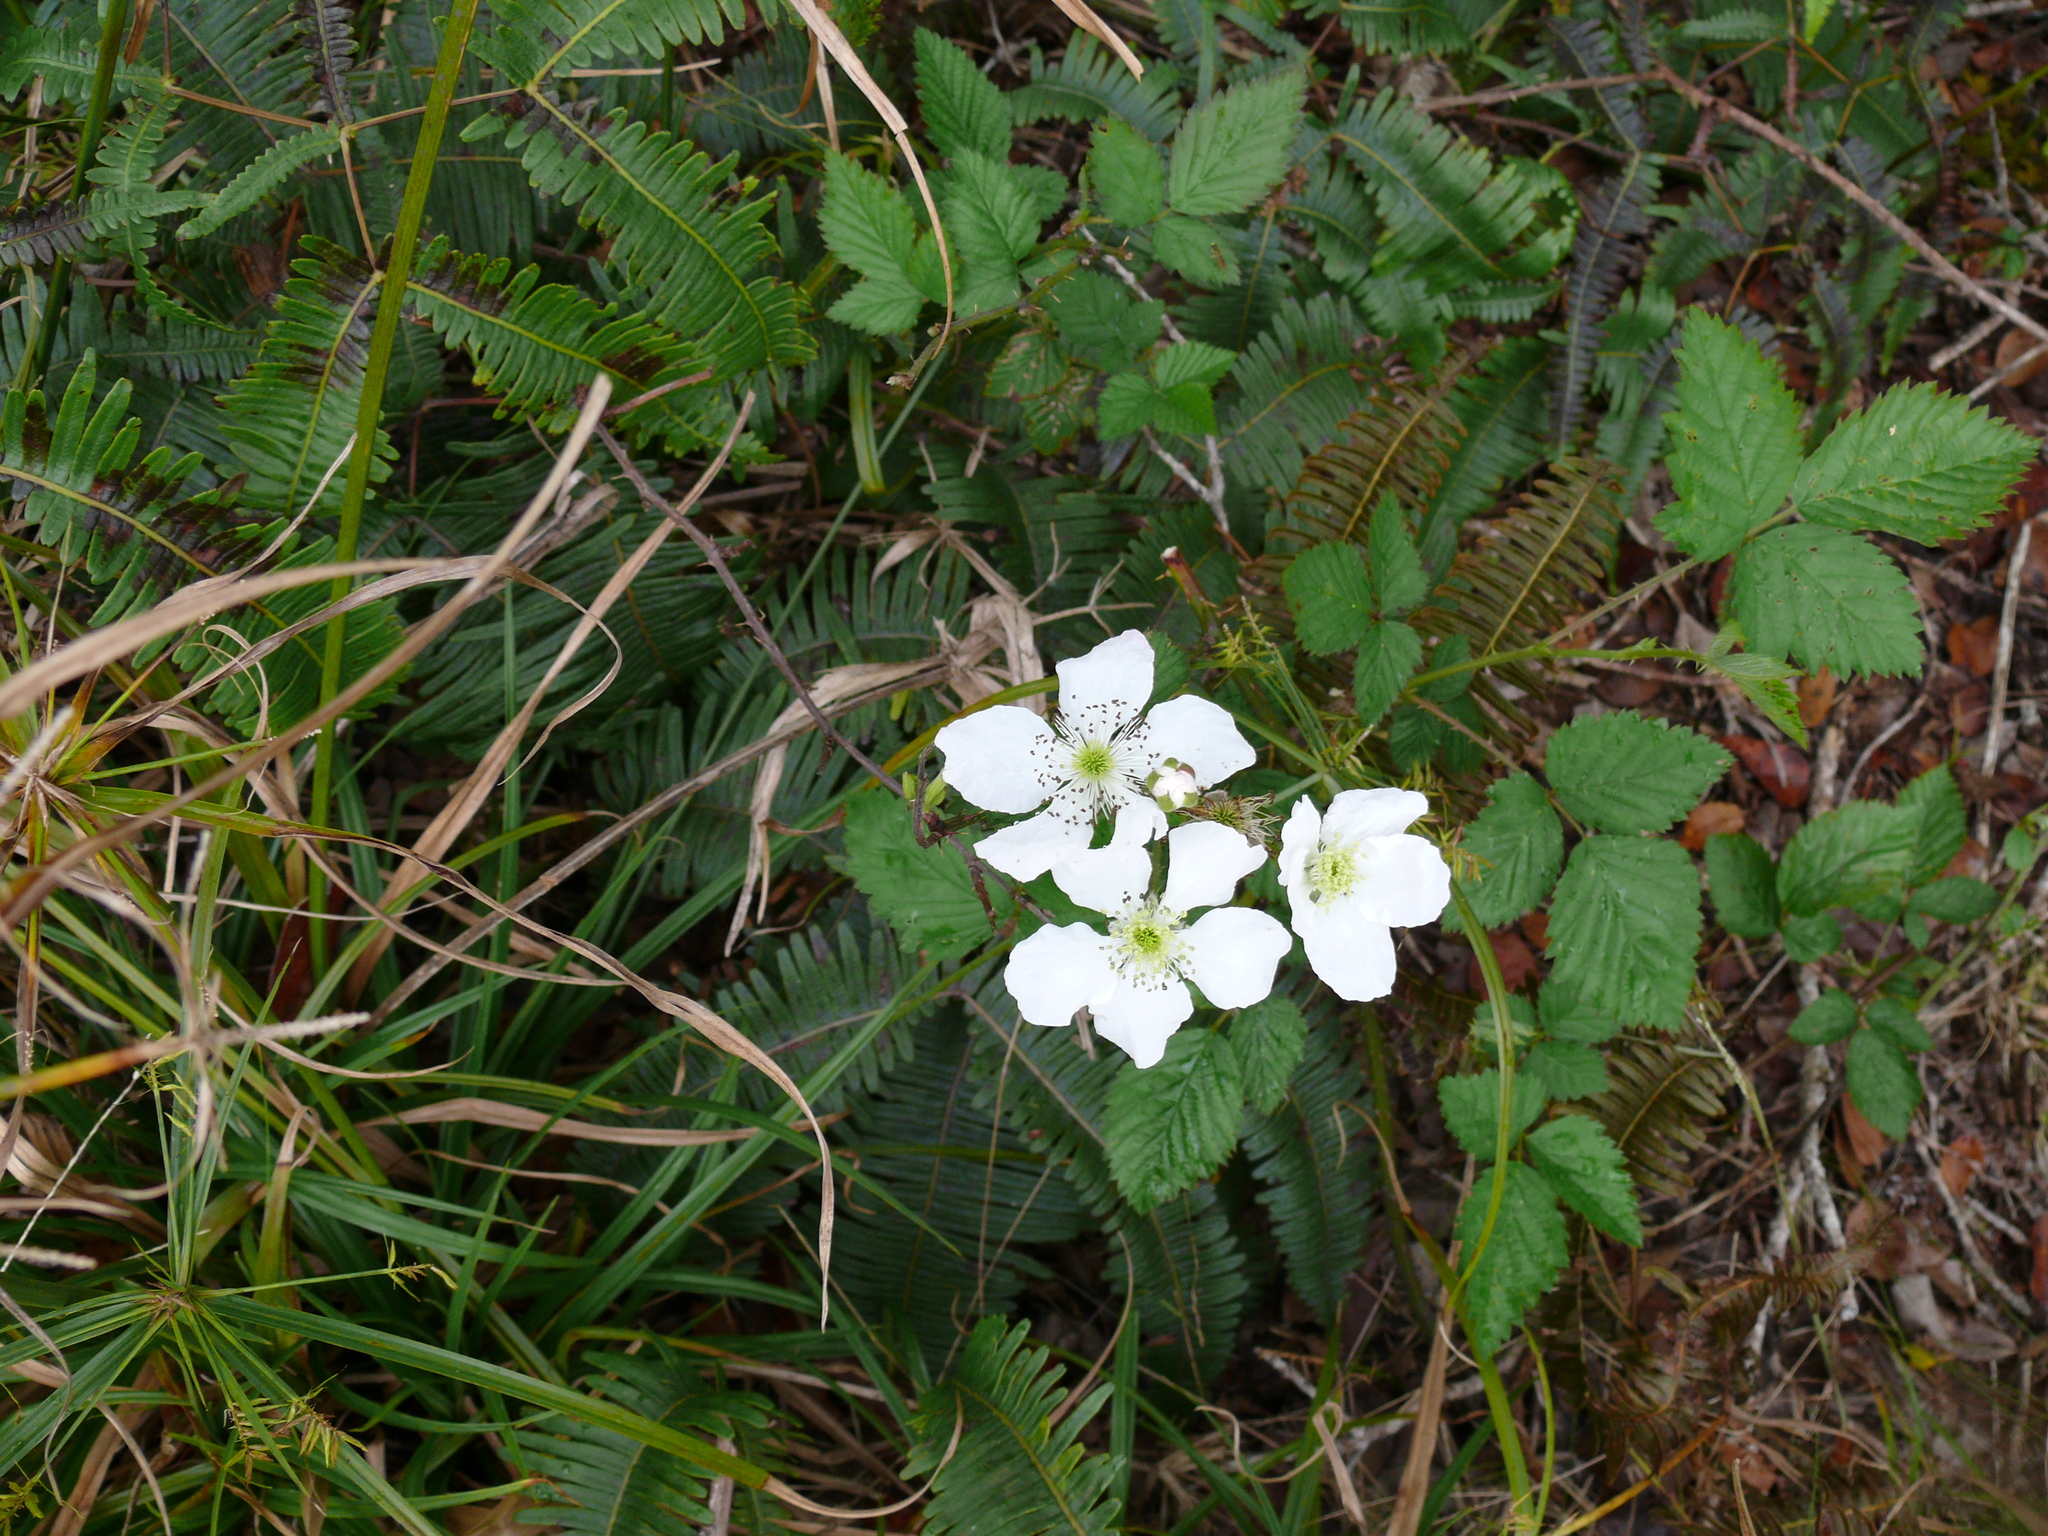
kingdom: Plantae
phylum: Tracheophyta
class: Magnoliopsida
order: Rosales
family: Rosaceae
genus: Rubus
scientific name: Rubus argutus
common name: Sawtooth blackberry
